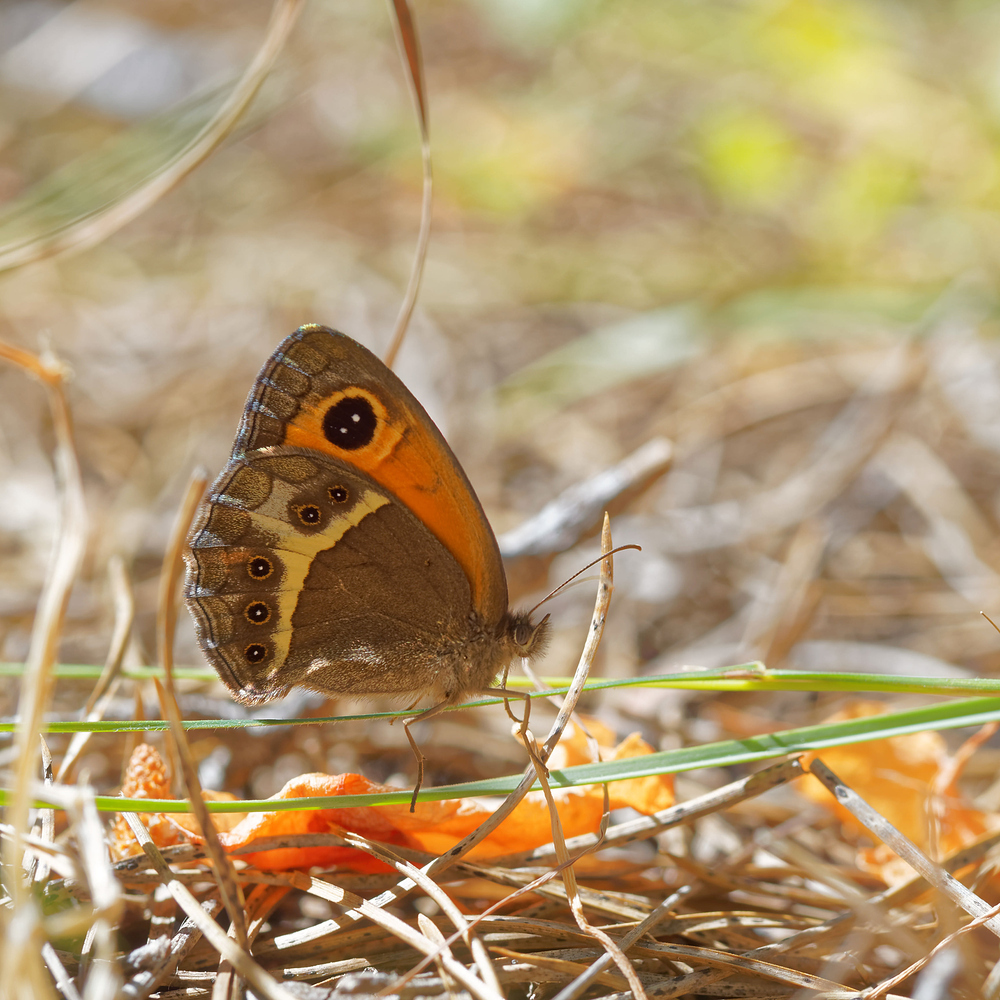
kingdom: Animalia
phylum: Arthropoda
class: Insecta
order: Lepidoptera
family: Nymphalidae
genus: Pyronia
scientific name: Pyronia bathseba
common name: Spanish gatekeeper
